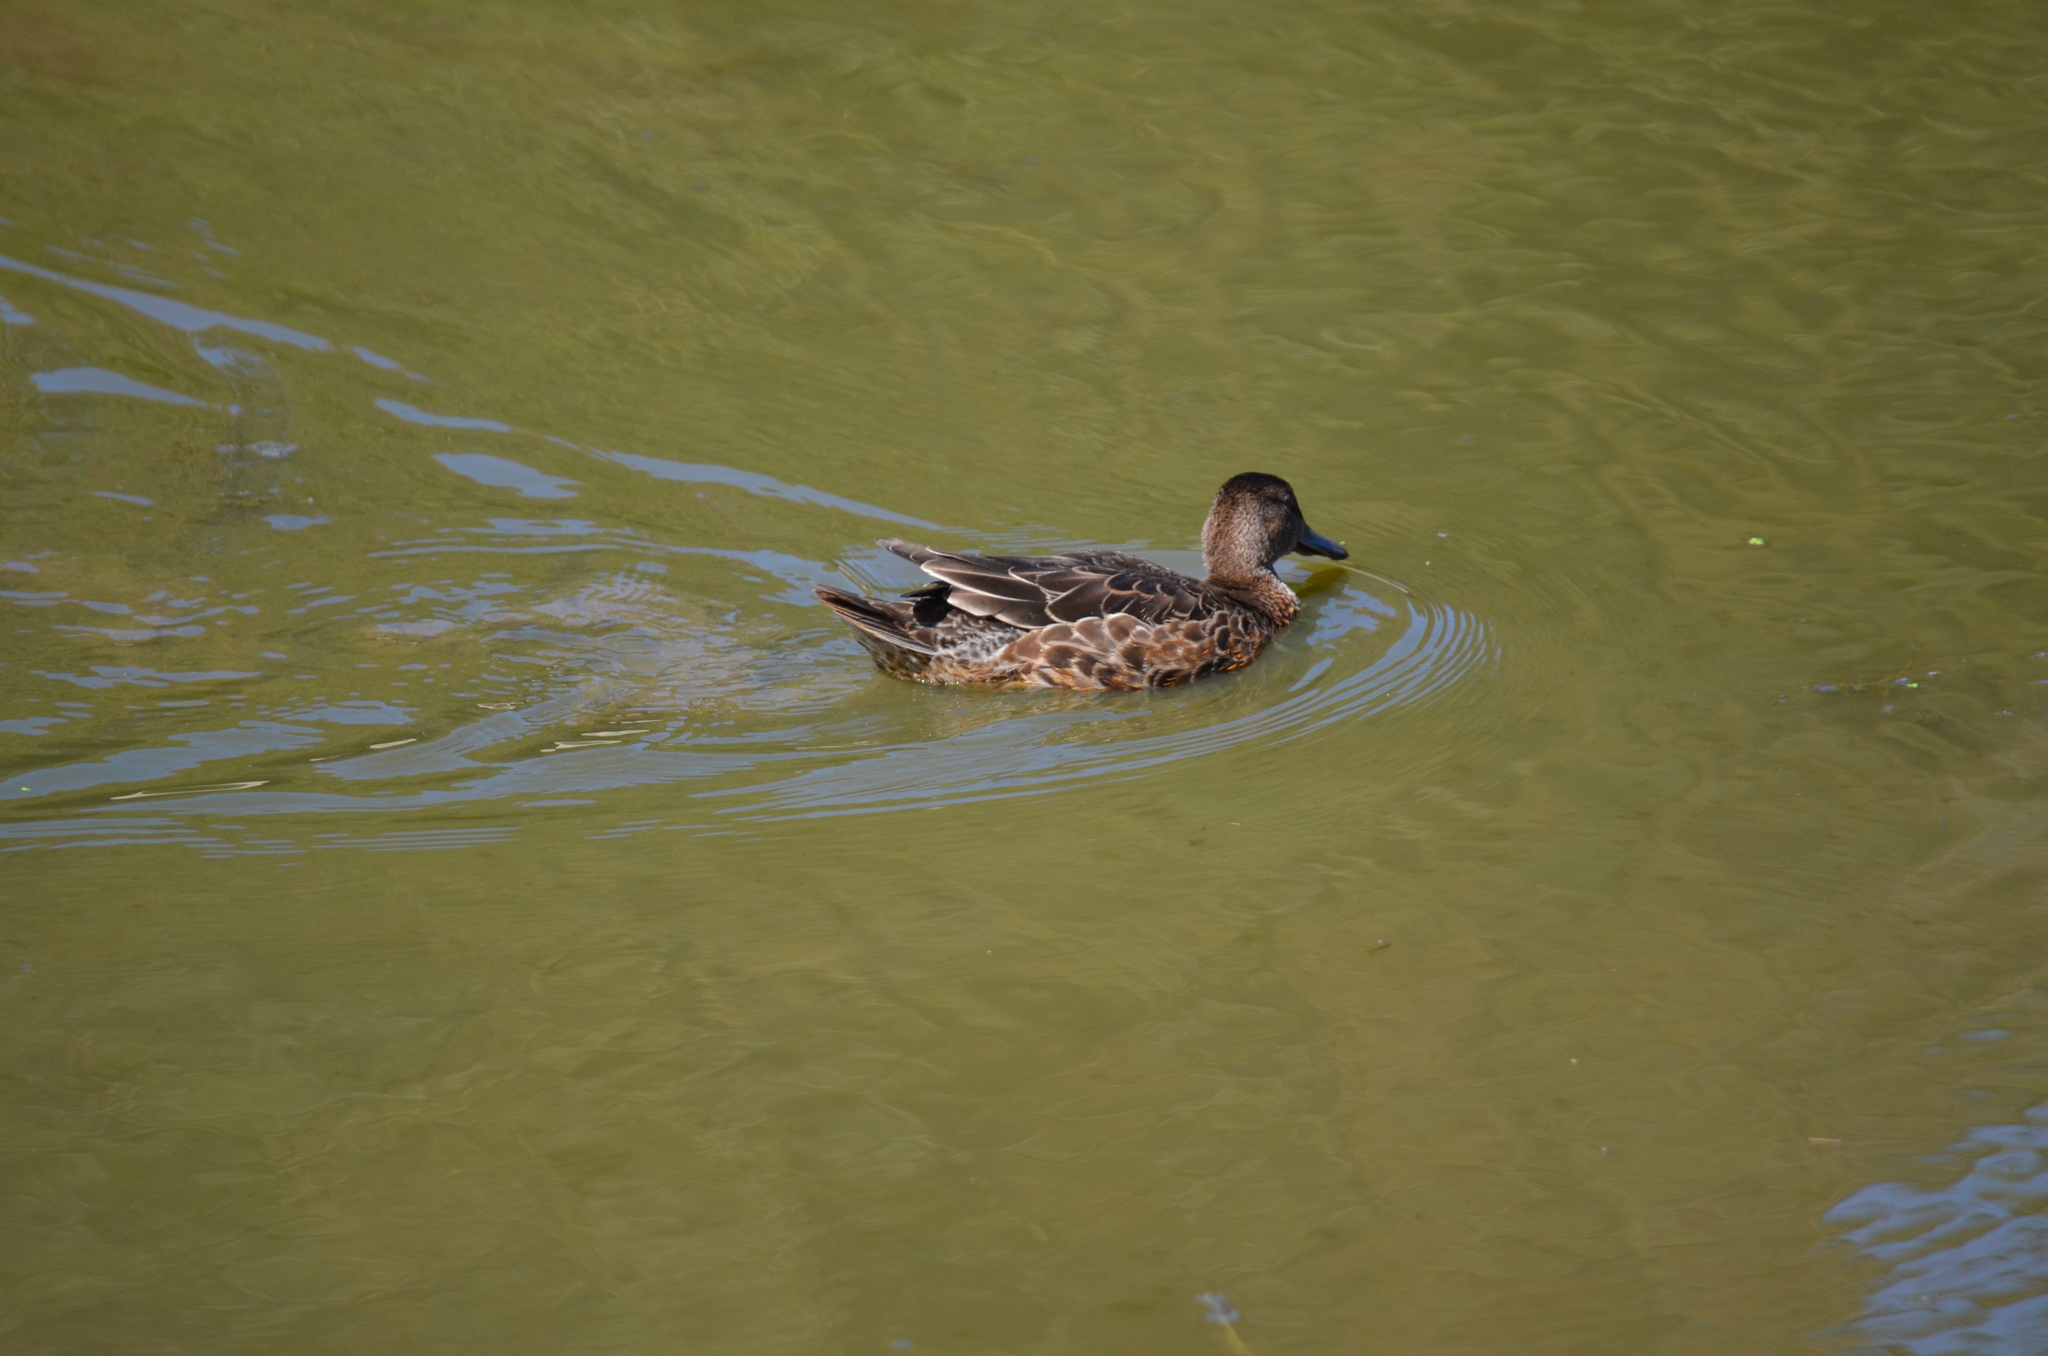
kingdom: Animalia
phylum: Chordata
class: Aves
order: Anseriformes
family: Anatidae
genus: Spatula
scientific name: Spatula cyanoptera
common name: Cinnamon teal
